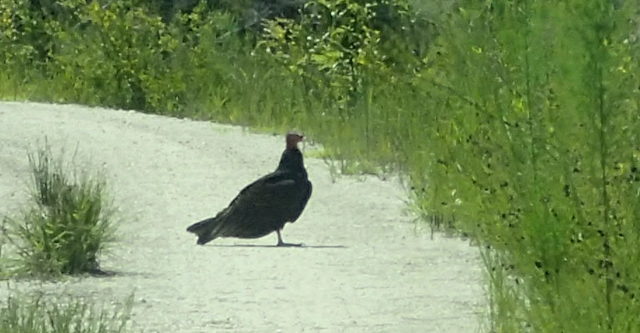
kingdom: Animalia
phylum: Chordata
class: Aves
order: Accipitriformes
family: Cathartidae
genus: Cathartes
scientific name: Cathartes aura
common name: Turkey vulture
